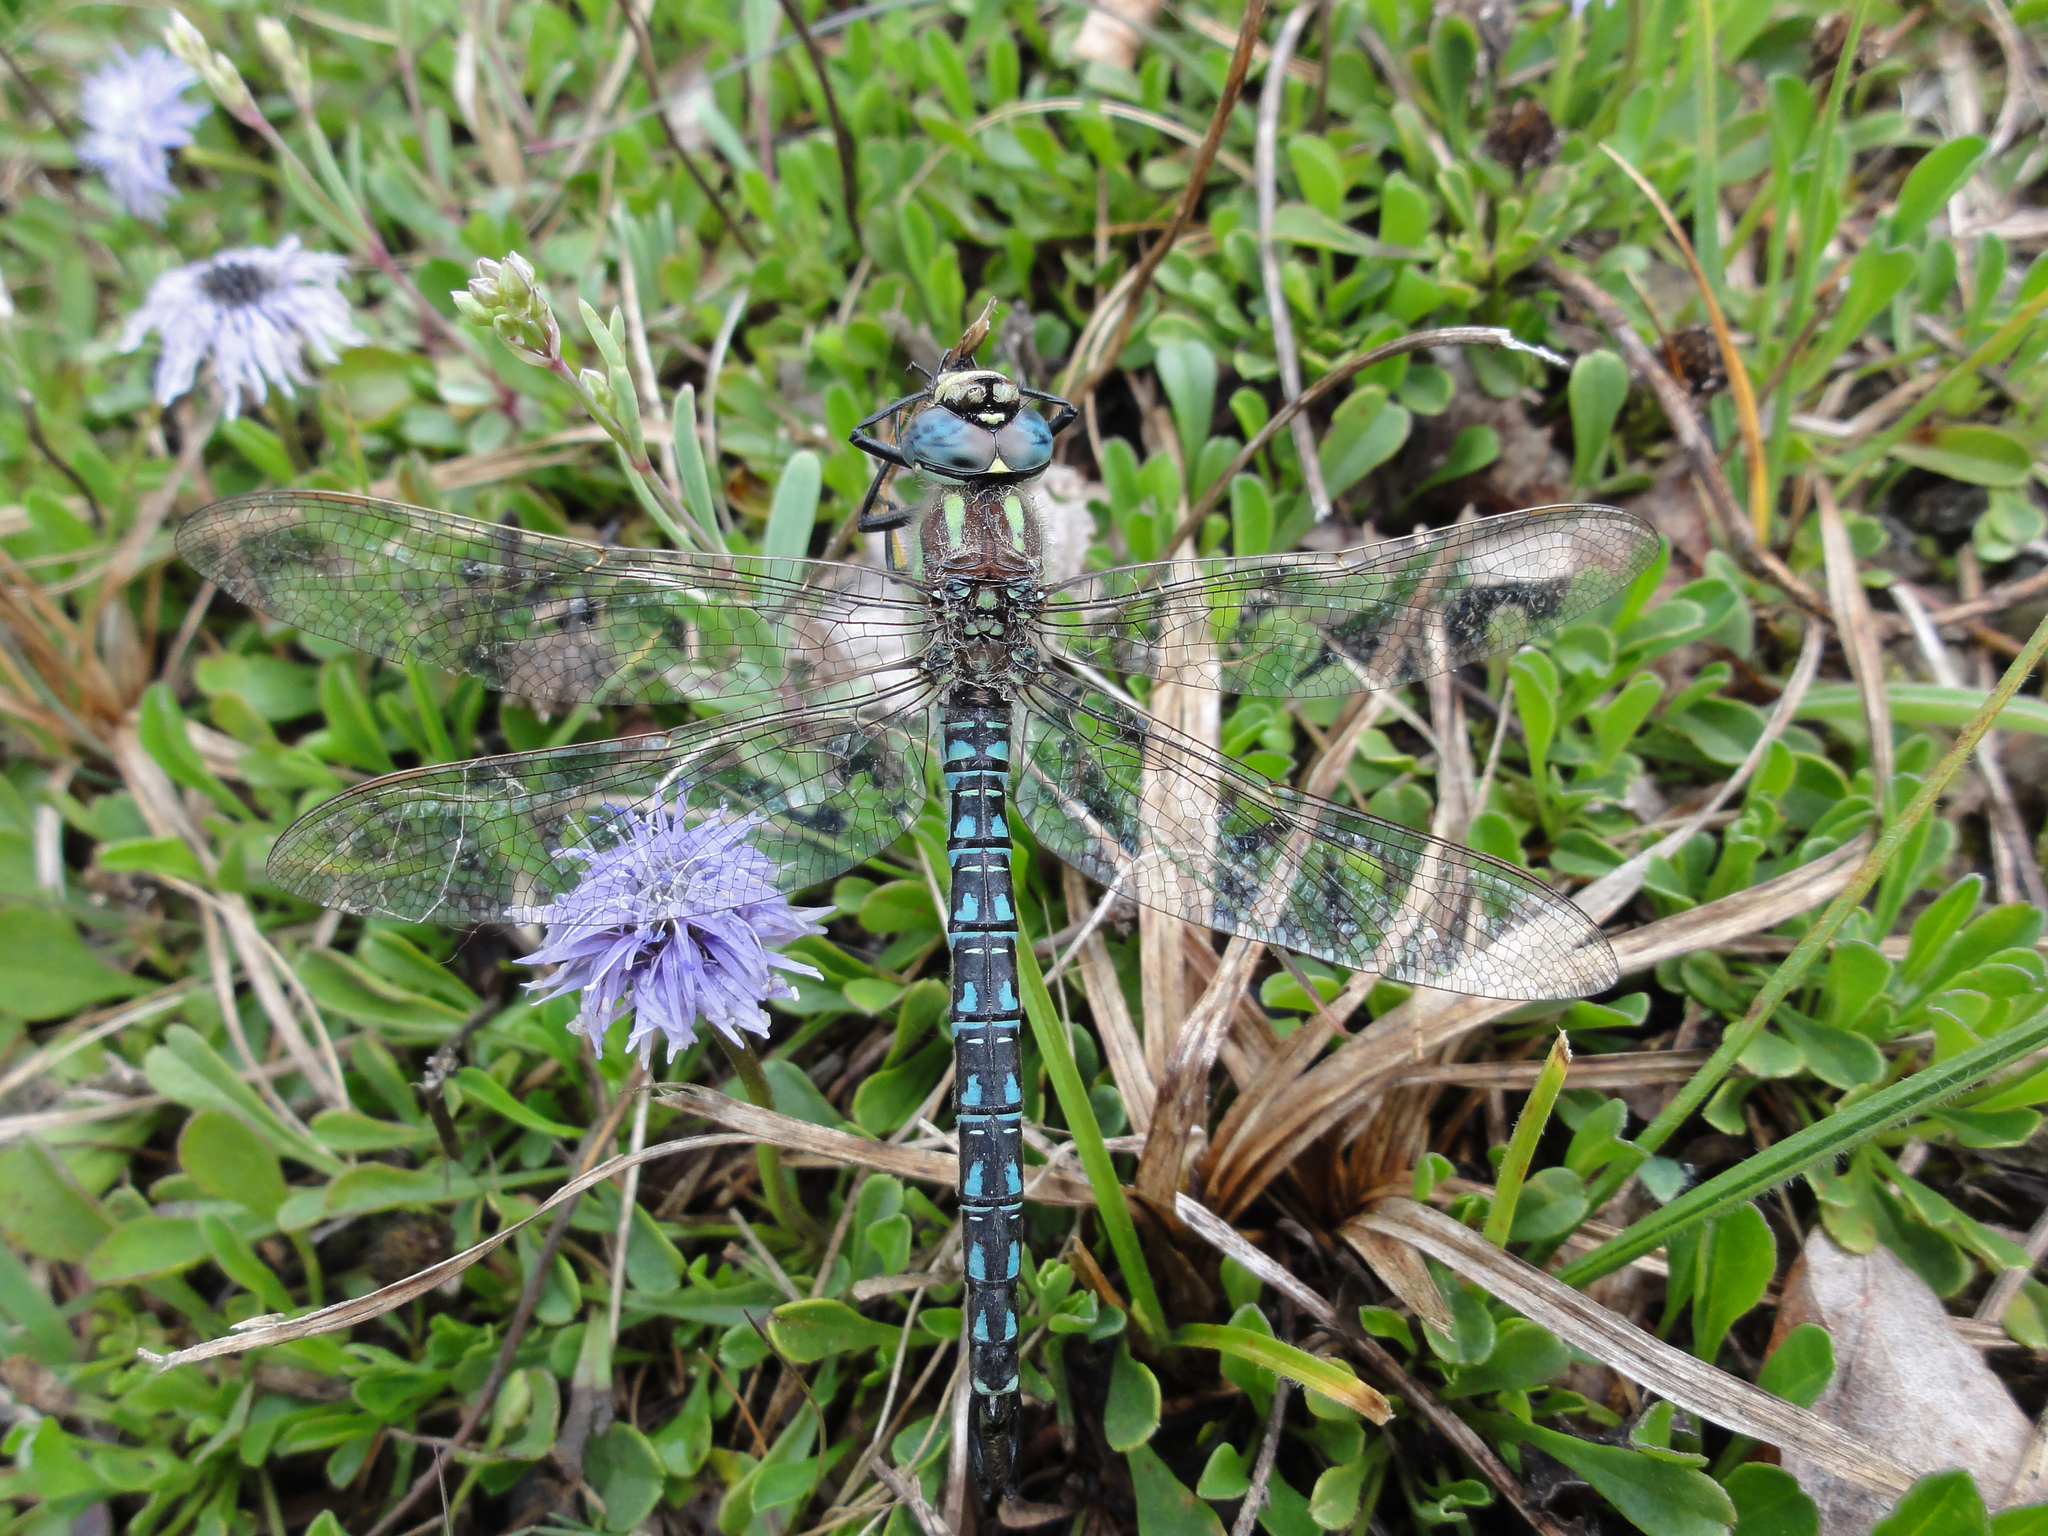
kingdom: Animalia
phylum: Arthropoda
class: Insecta
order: Odonata
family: Aeshnidae
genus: Brachytron
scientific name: Brachytron pratense
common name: Hairy hawker
